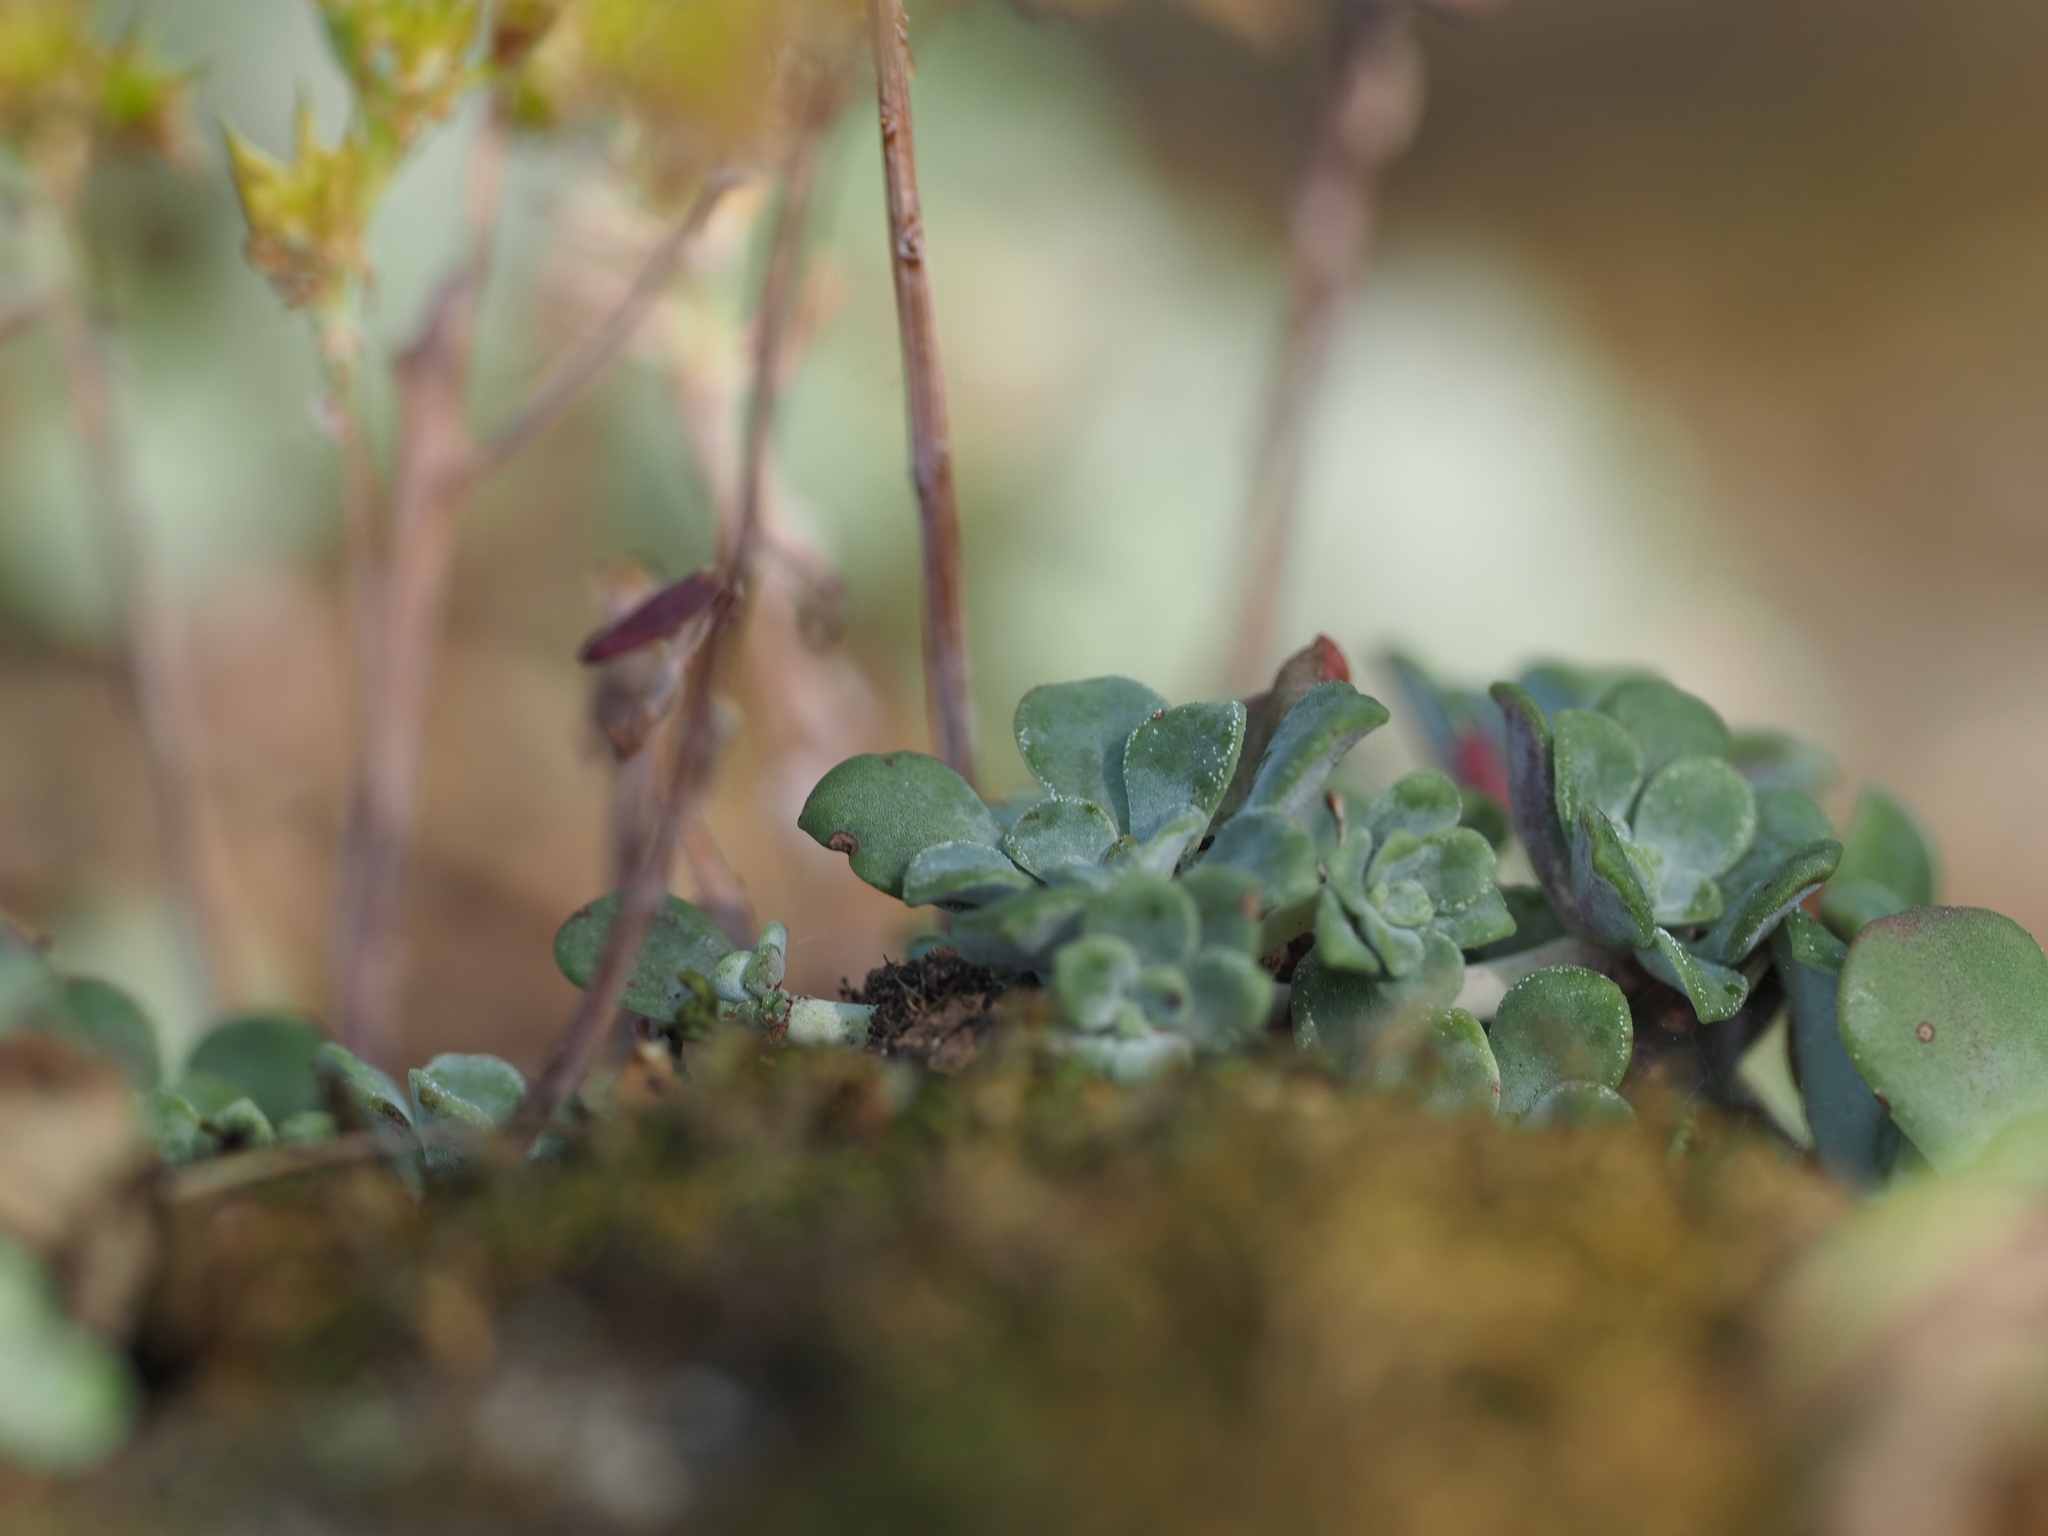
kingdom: Plantae
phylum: Tracheophyta
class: Magnoliopsida
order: Saxifragales
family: Crassulaceae
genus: Sedum
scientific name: Sedum spathulifolium
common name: Colorado stonecrop
